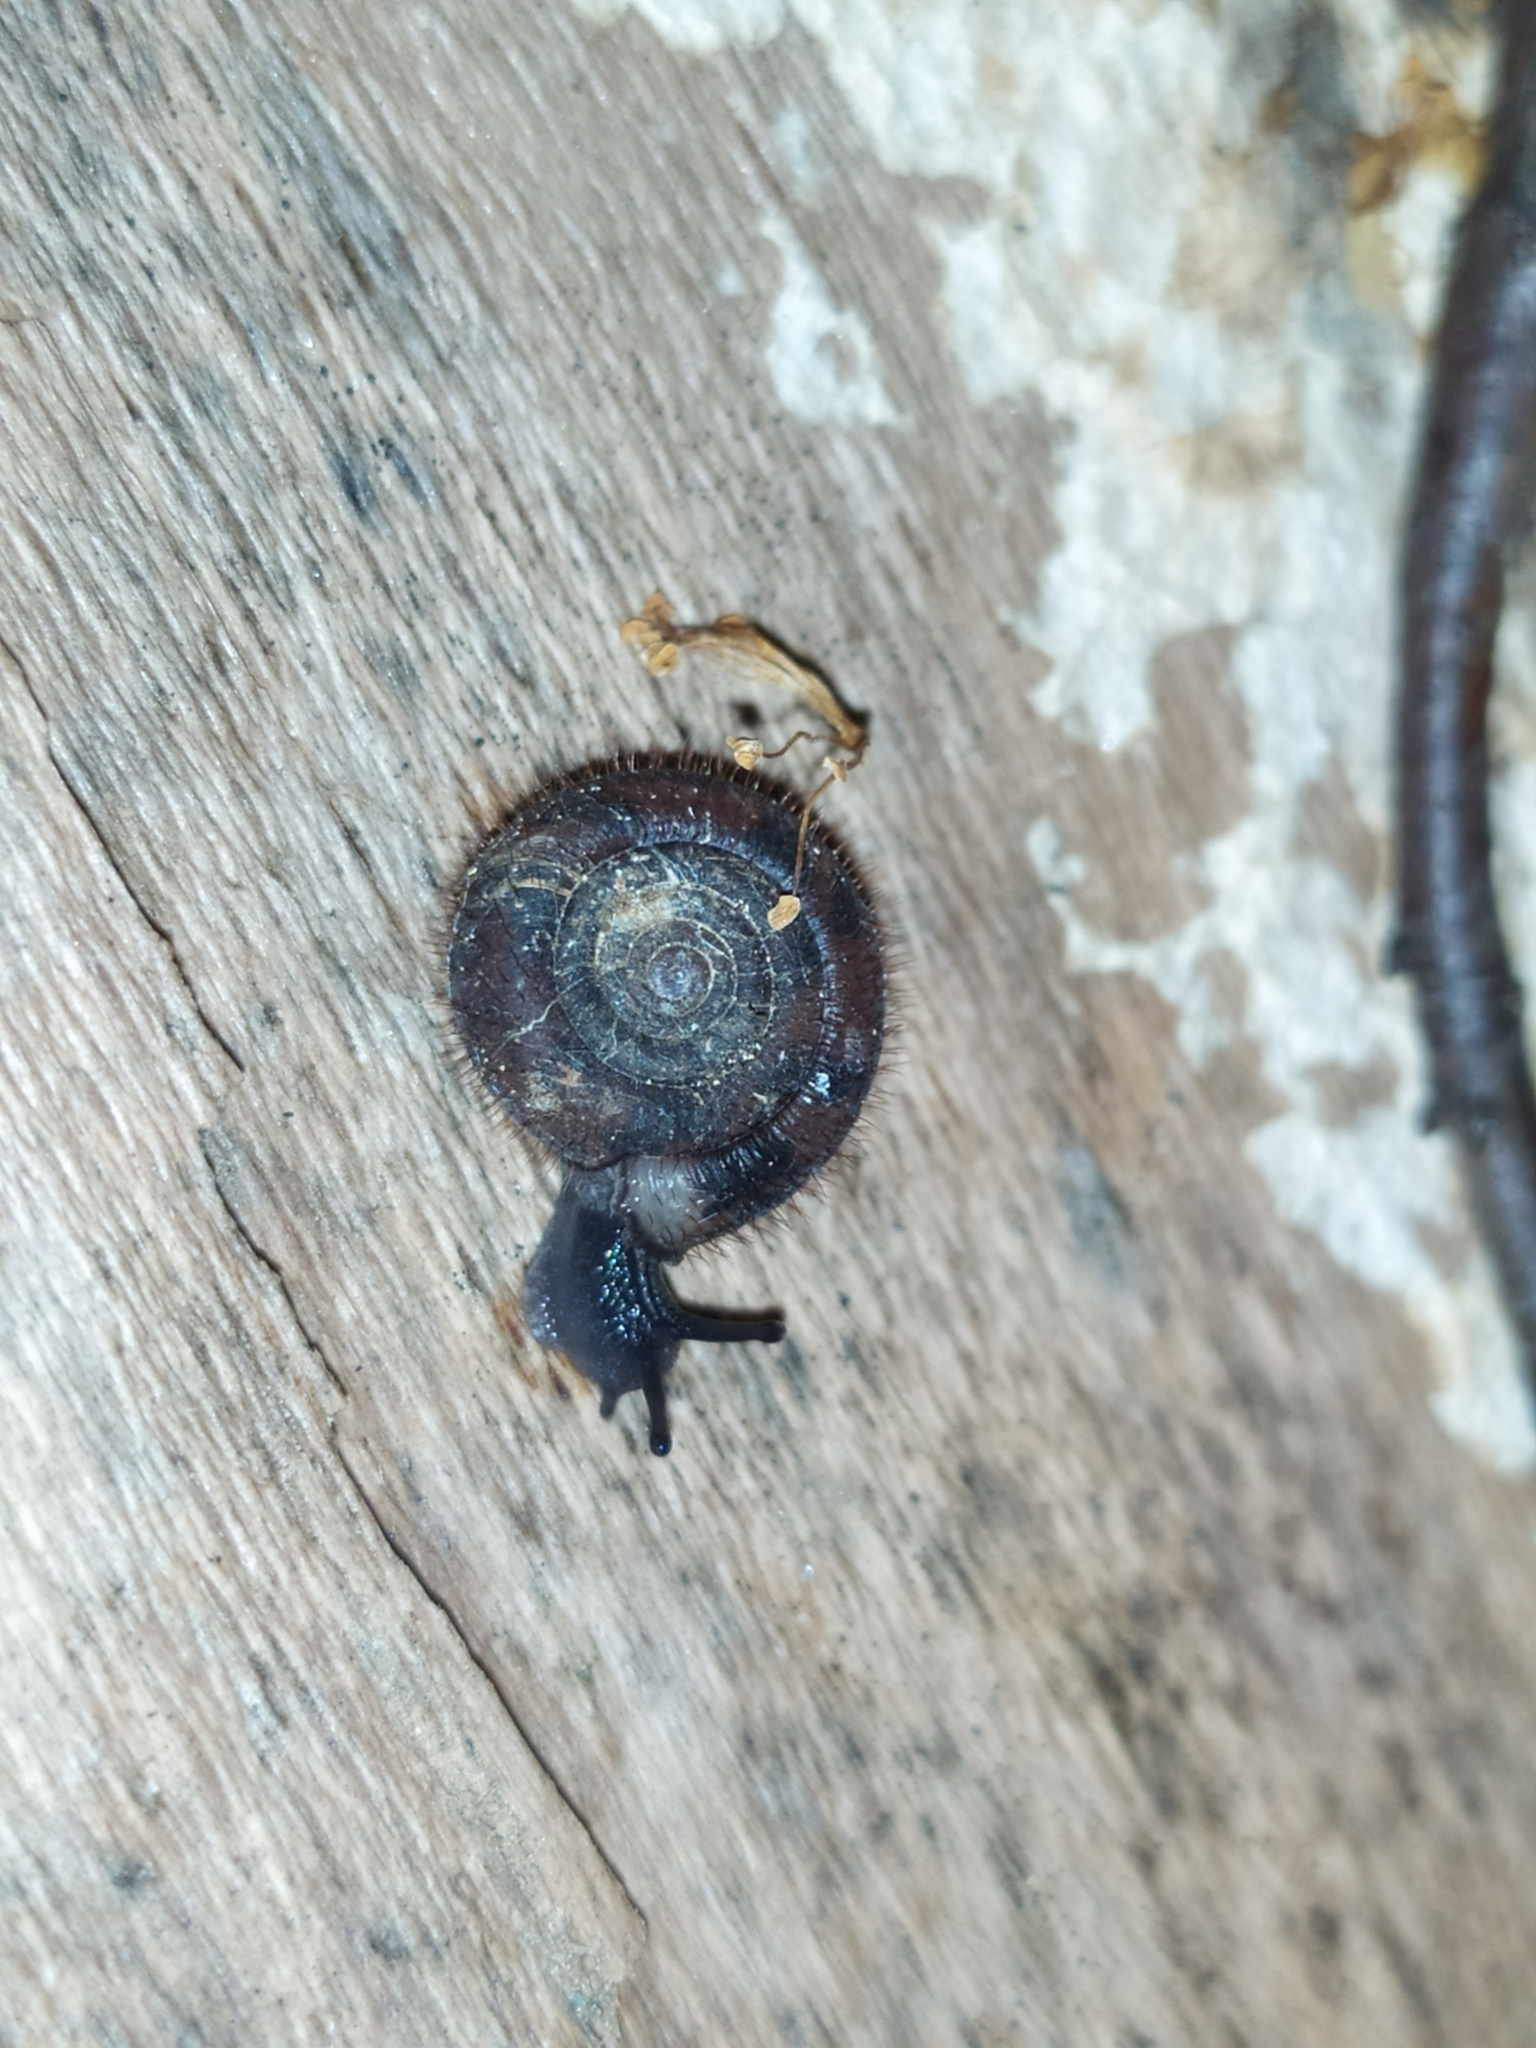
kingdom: Animalia
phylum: Mollusca
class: Gastropoda
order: Stylommatophora
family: Helicodontidae
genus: Helicodonta
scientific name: Helicodonta obvoluta
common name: Cheese snail
